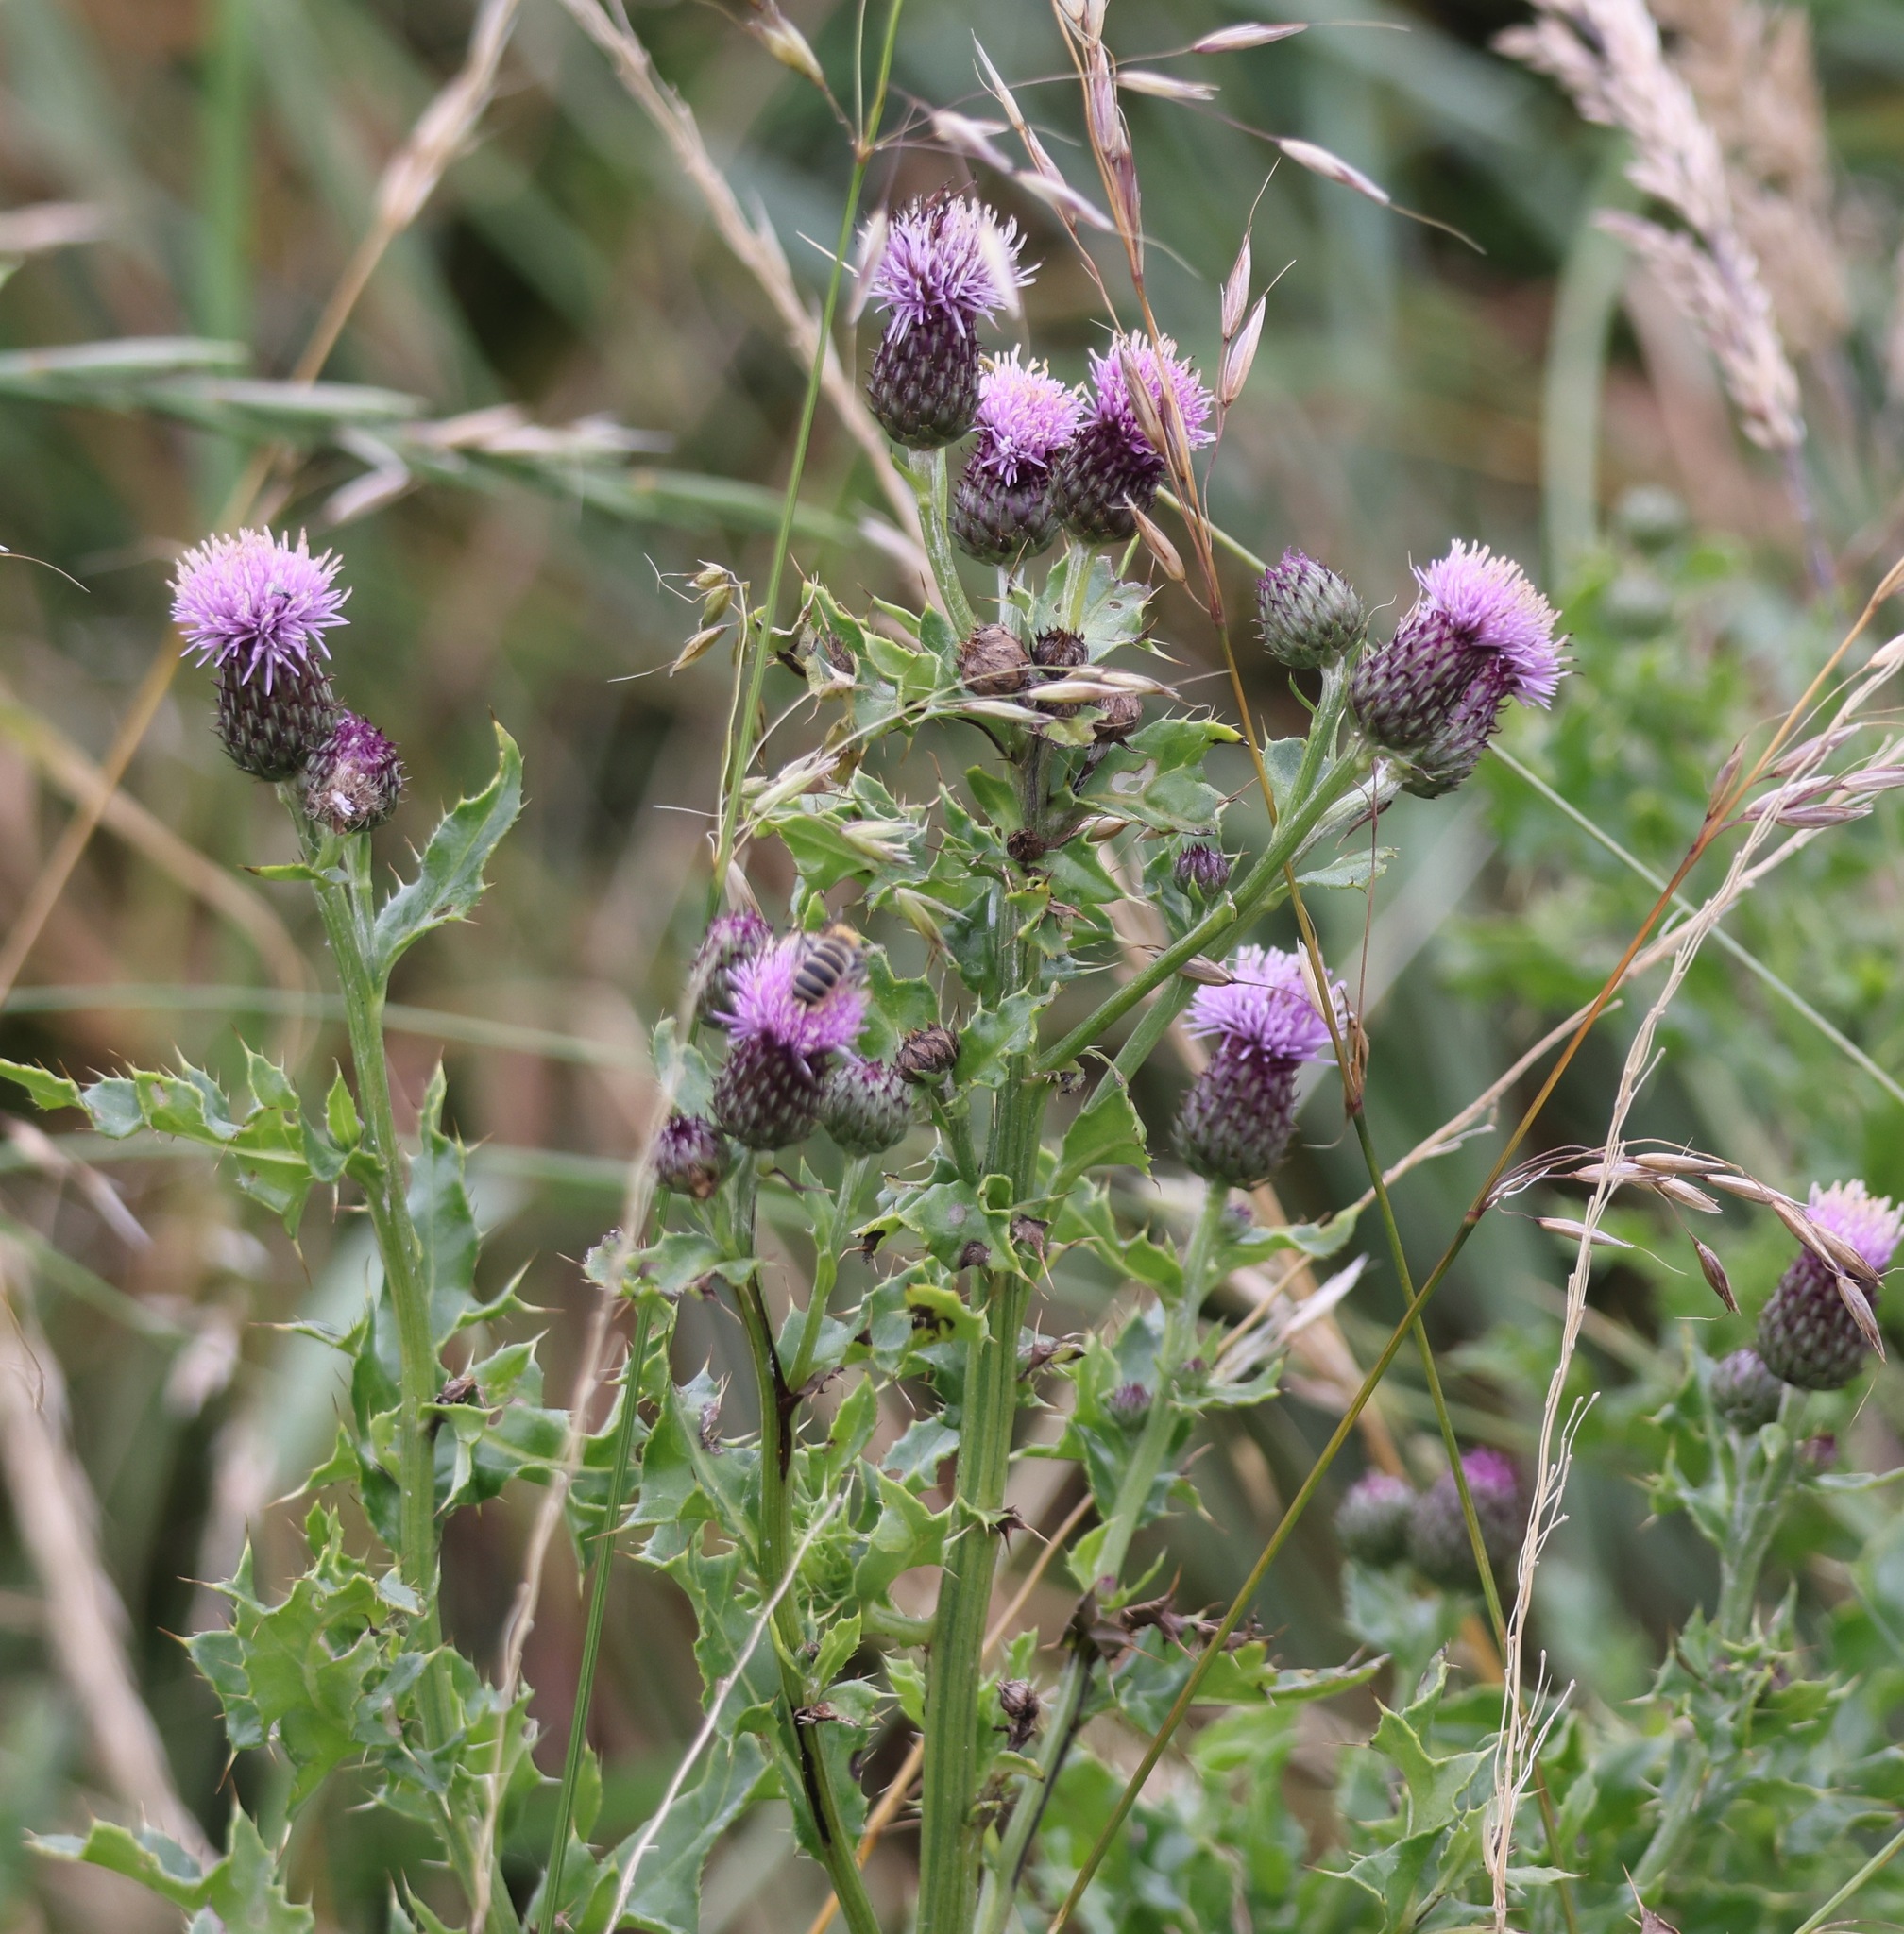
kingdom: Plantae
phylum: Tracheophyta
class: Magnoliopsida
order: Asterales
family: Asteraceae
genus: Cirsium
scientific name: Cirsium arvense
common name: Creeping thistle
